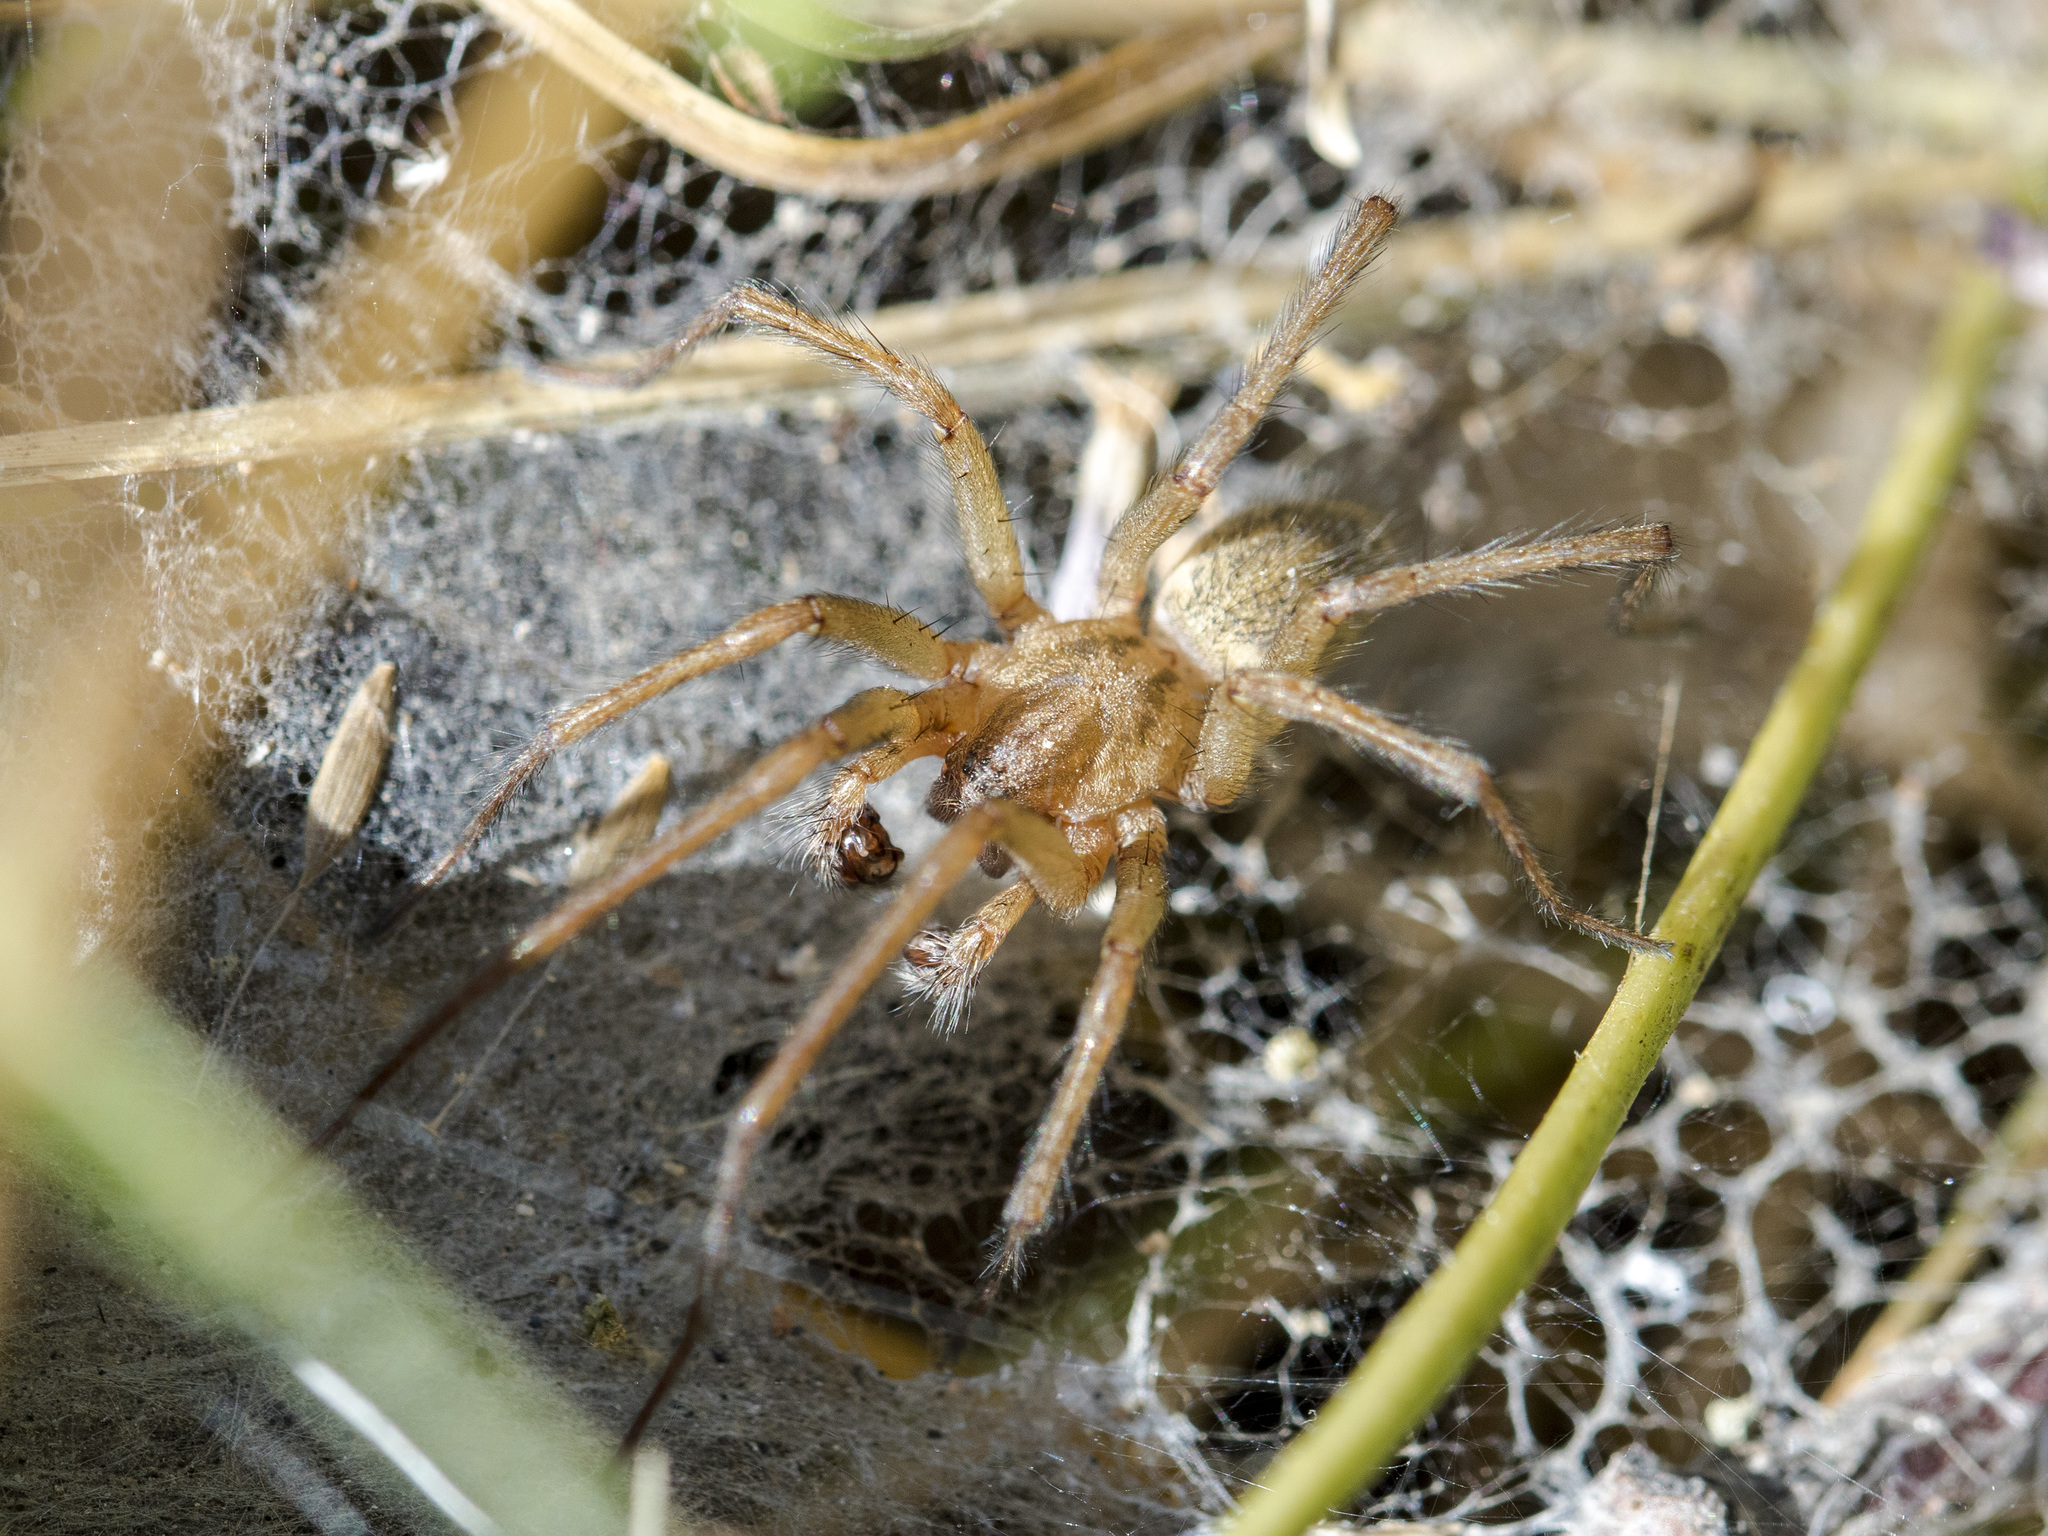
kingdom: Animalia
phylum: Arthropoda
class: Arachnida
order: Araneae
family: Agelenidae
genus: Eratigena
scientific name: Eratigena agrestis
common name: Hobo spider
